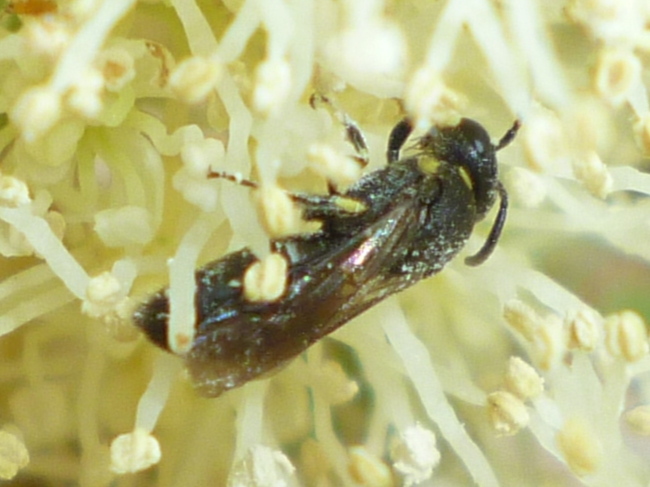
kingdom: Animalia
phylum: Arthropoda
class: Insecta
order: Hymenoptera
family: Colletidae
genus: Hylaeus
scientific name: Hylaeus modestus
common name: Yellow-faced bee
